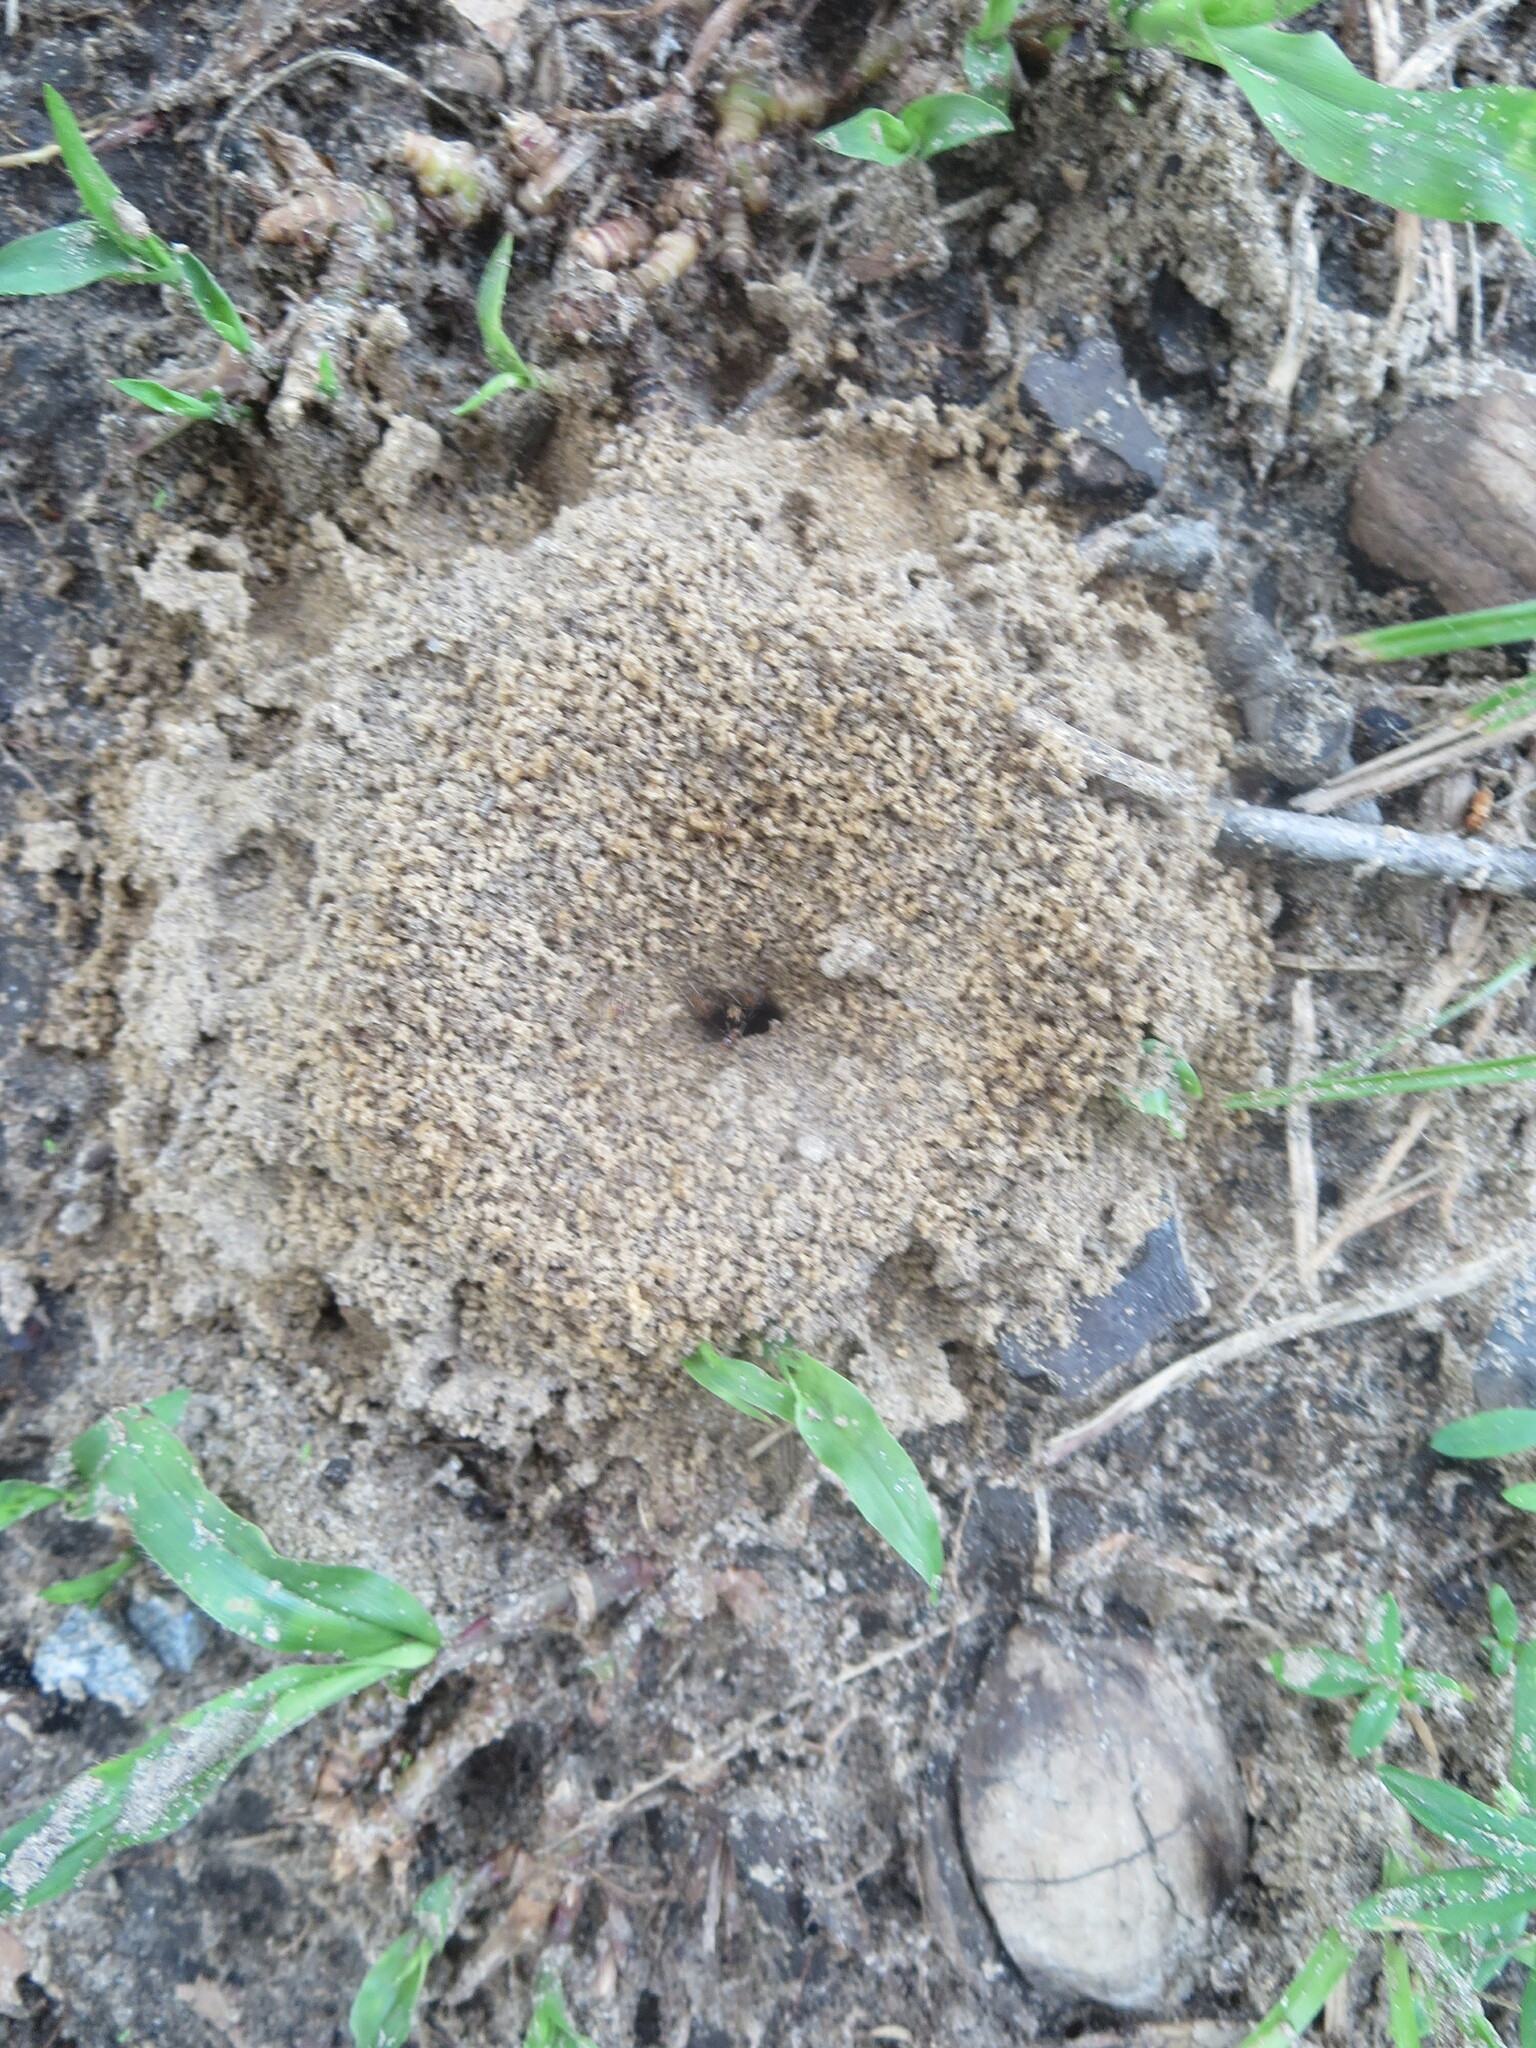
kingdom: Animalia
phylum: Arthropoda
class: Insecta
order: Hymenoptera
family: Formicidae
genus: Dorymyrmex
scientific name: Dorymyrmex bureni
